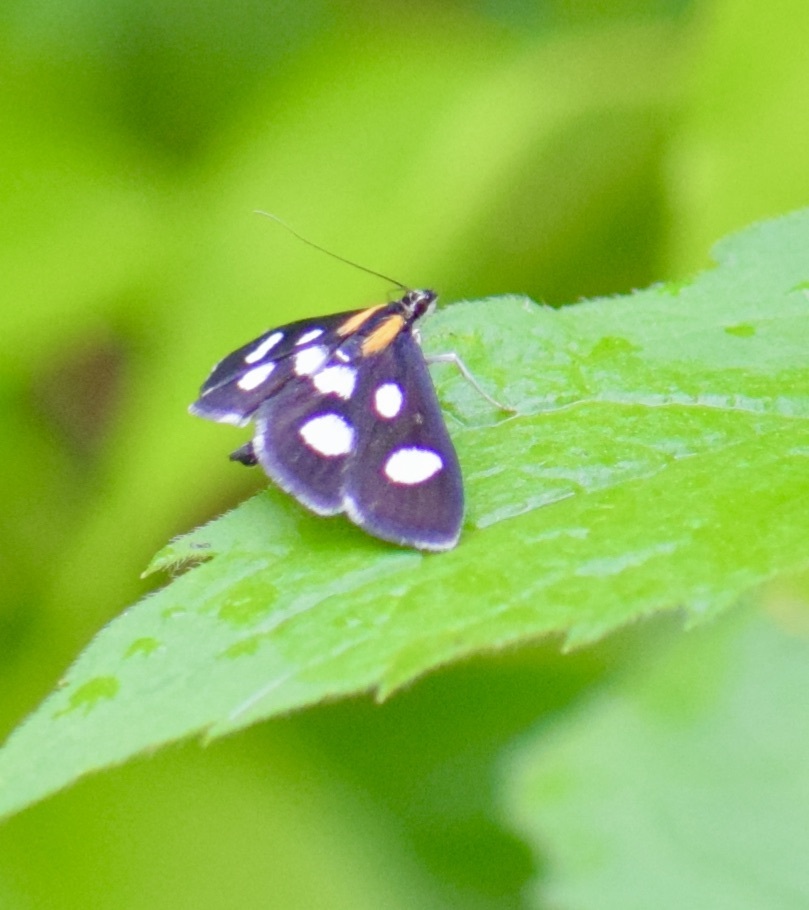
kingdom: Animalia
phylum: Arthropoda
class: Insecta
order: Lepidoptera
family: Crambidae
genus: Anania
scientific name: Anania funebris
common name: White-spotted sable moth
